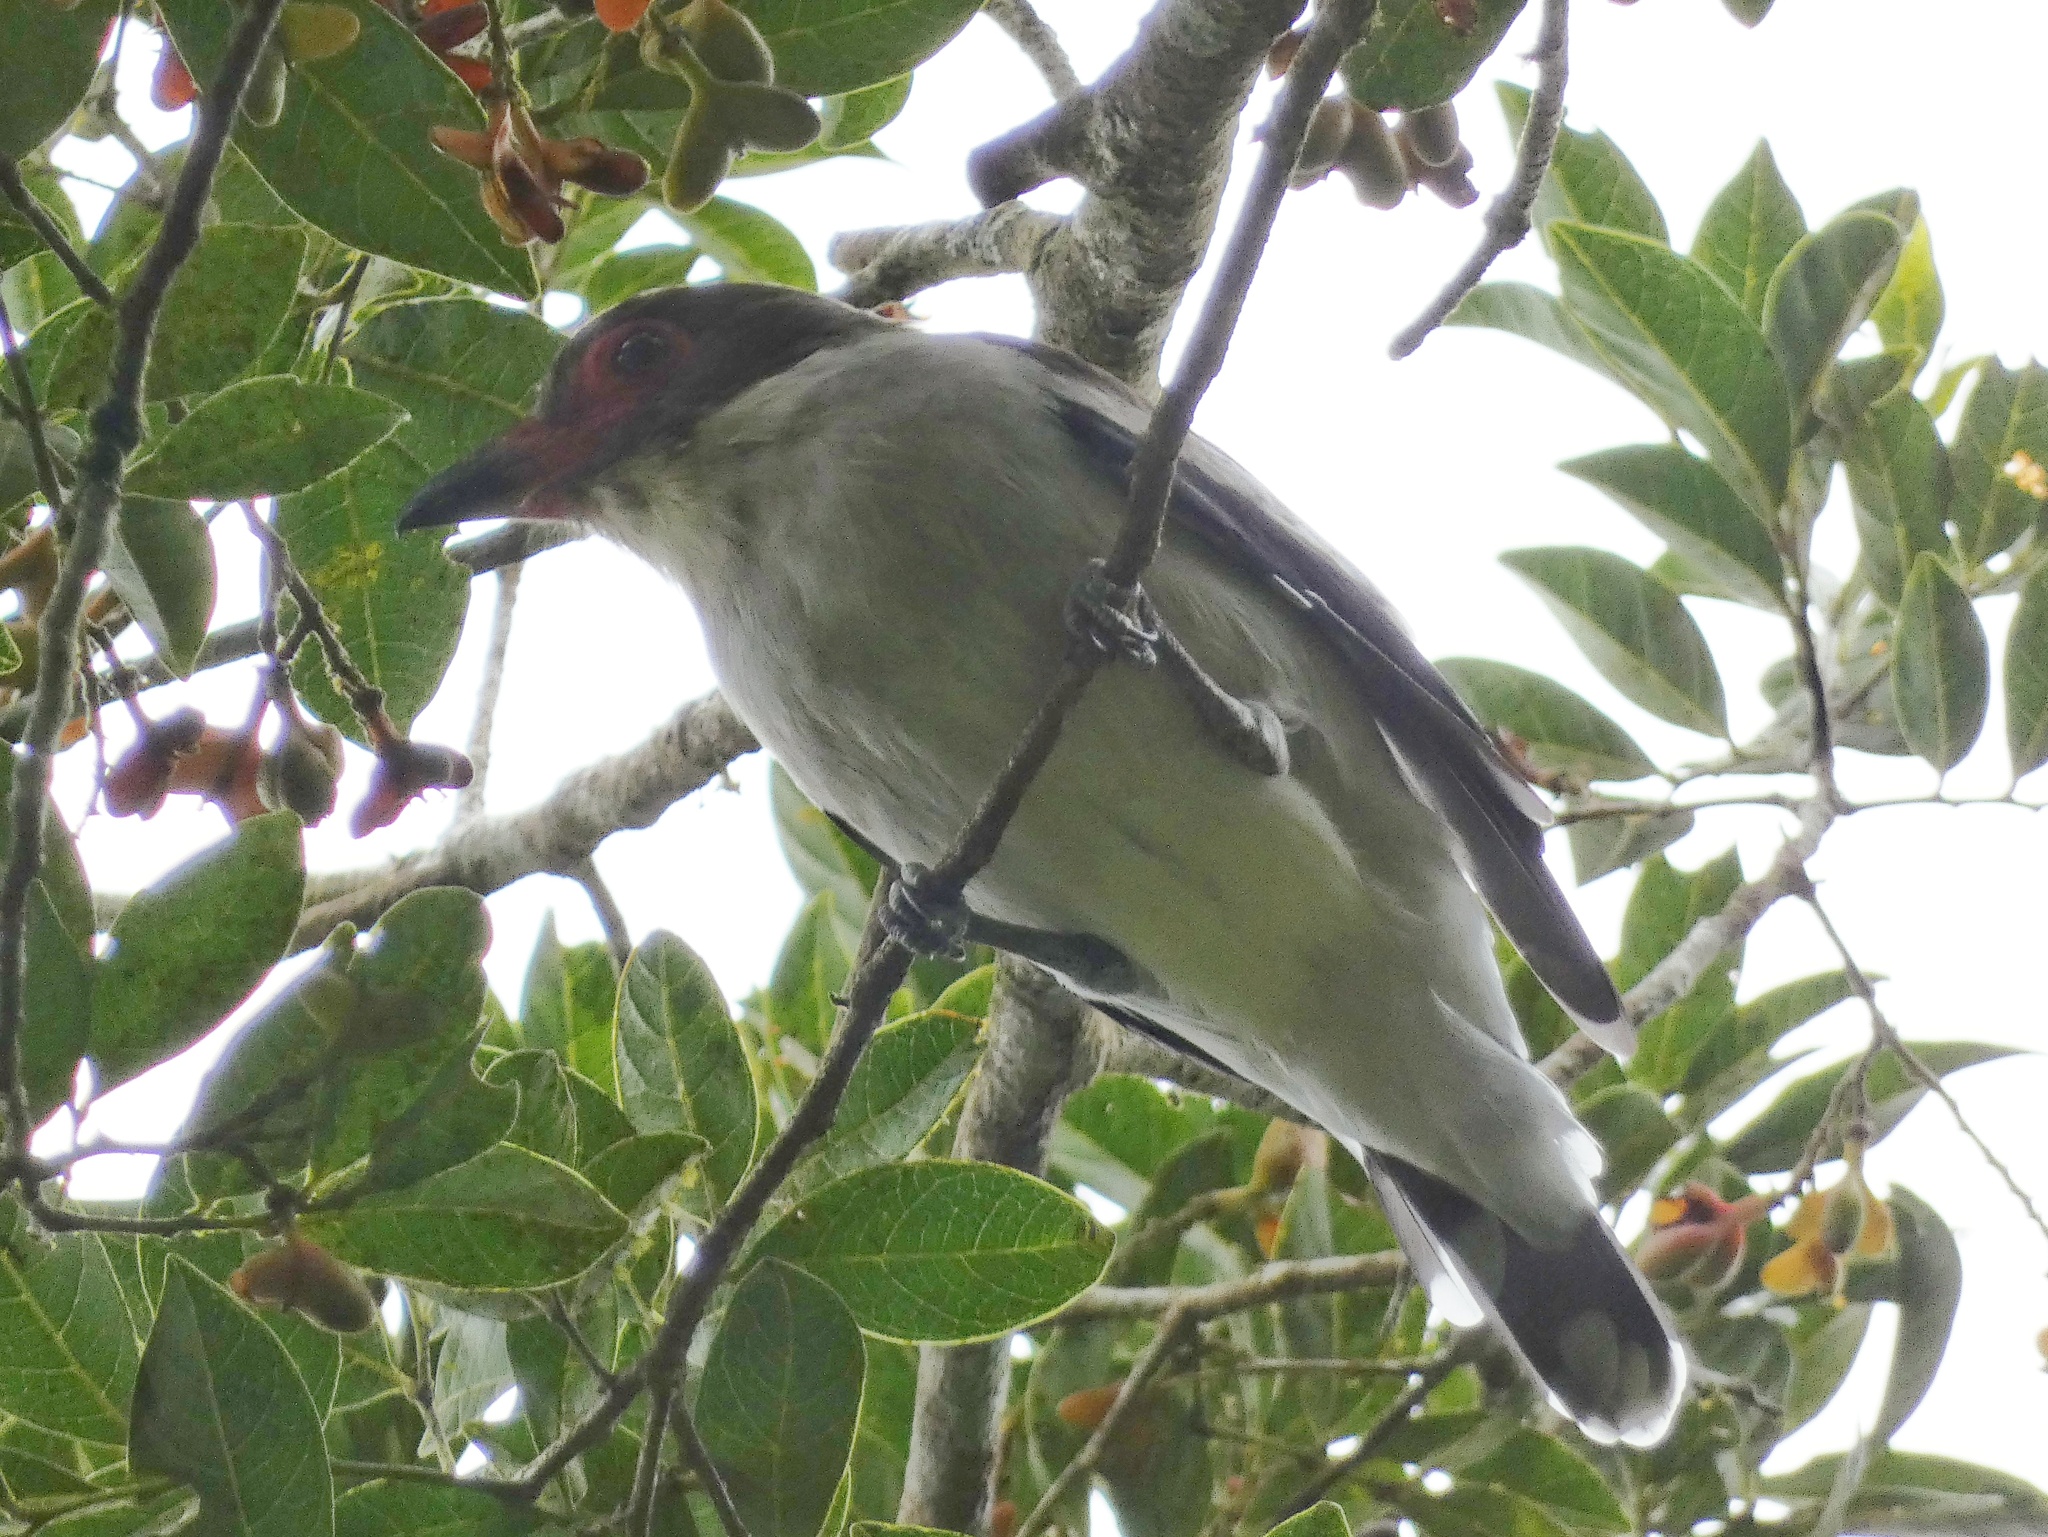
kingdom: Animalia
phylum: Chordata
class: Aves
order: Passeriformes
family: Cotingidae
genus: Tityra
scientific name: Tityra semifasciata
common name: Masked tityra
